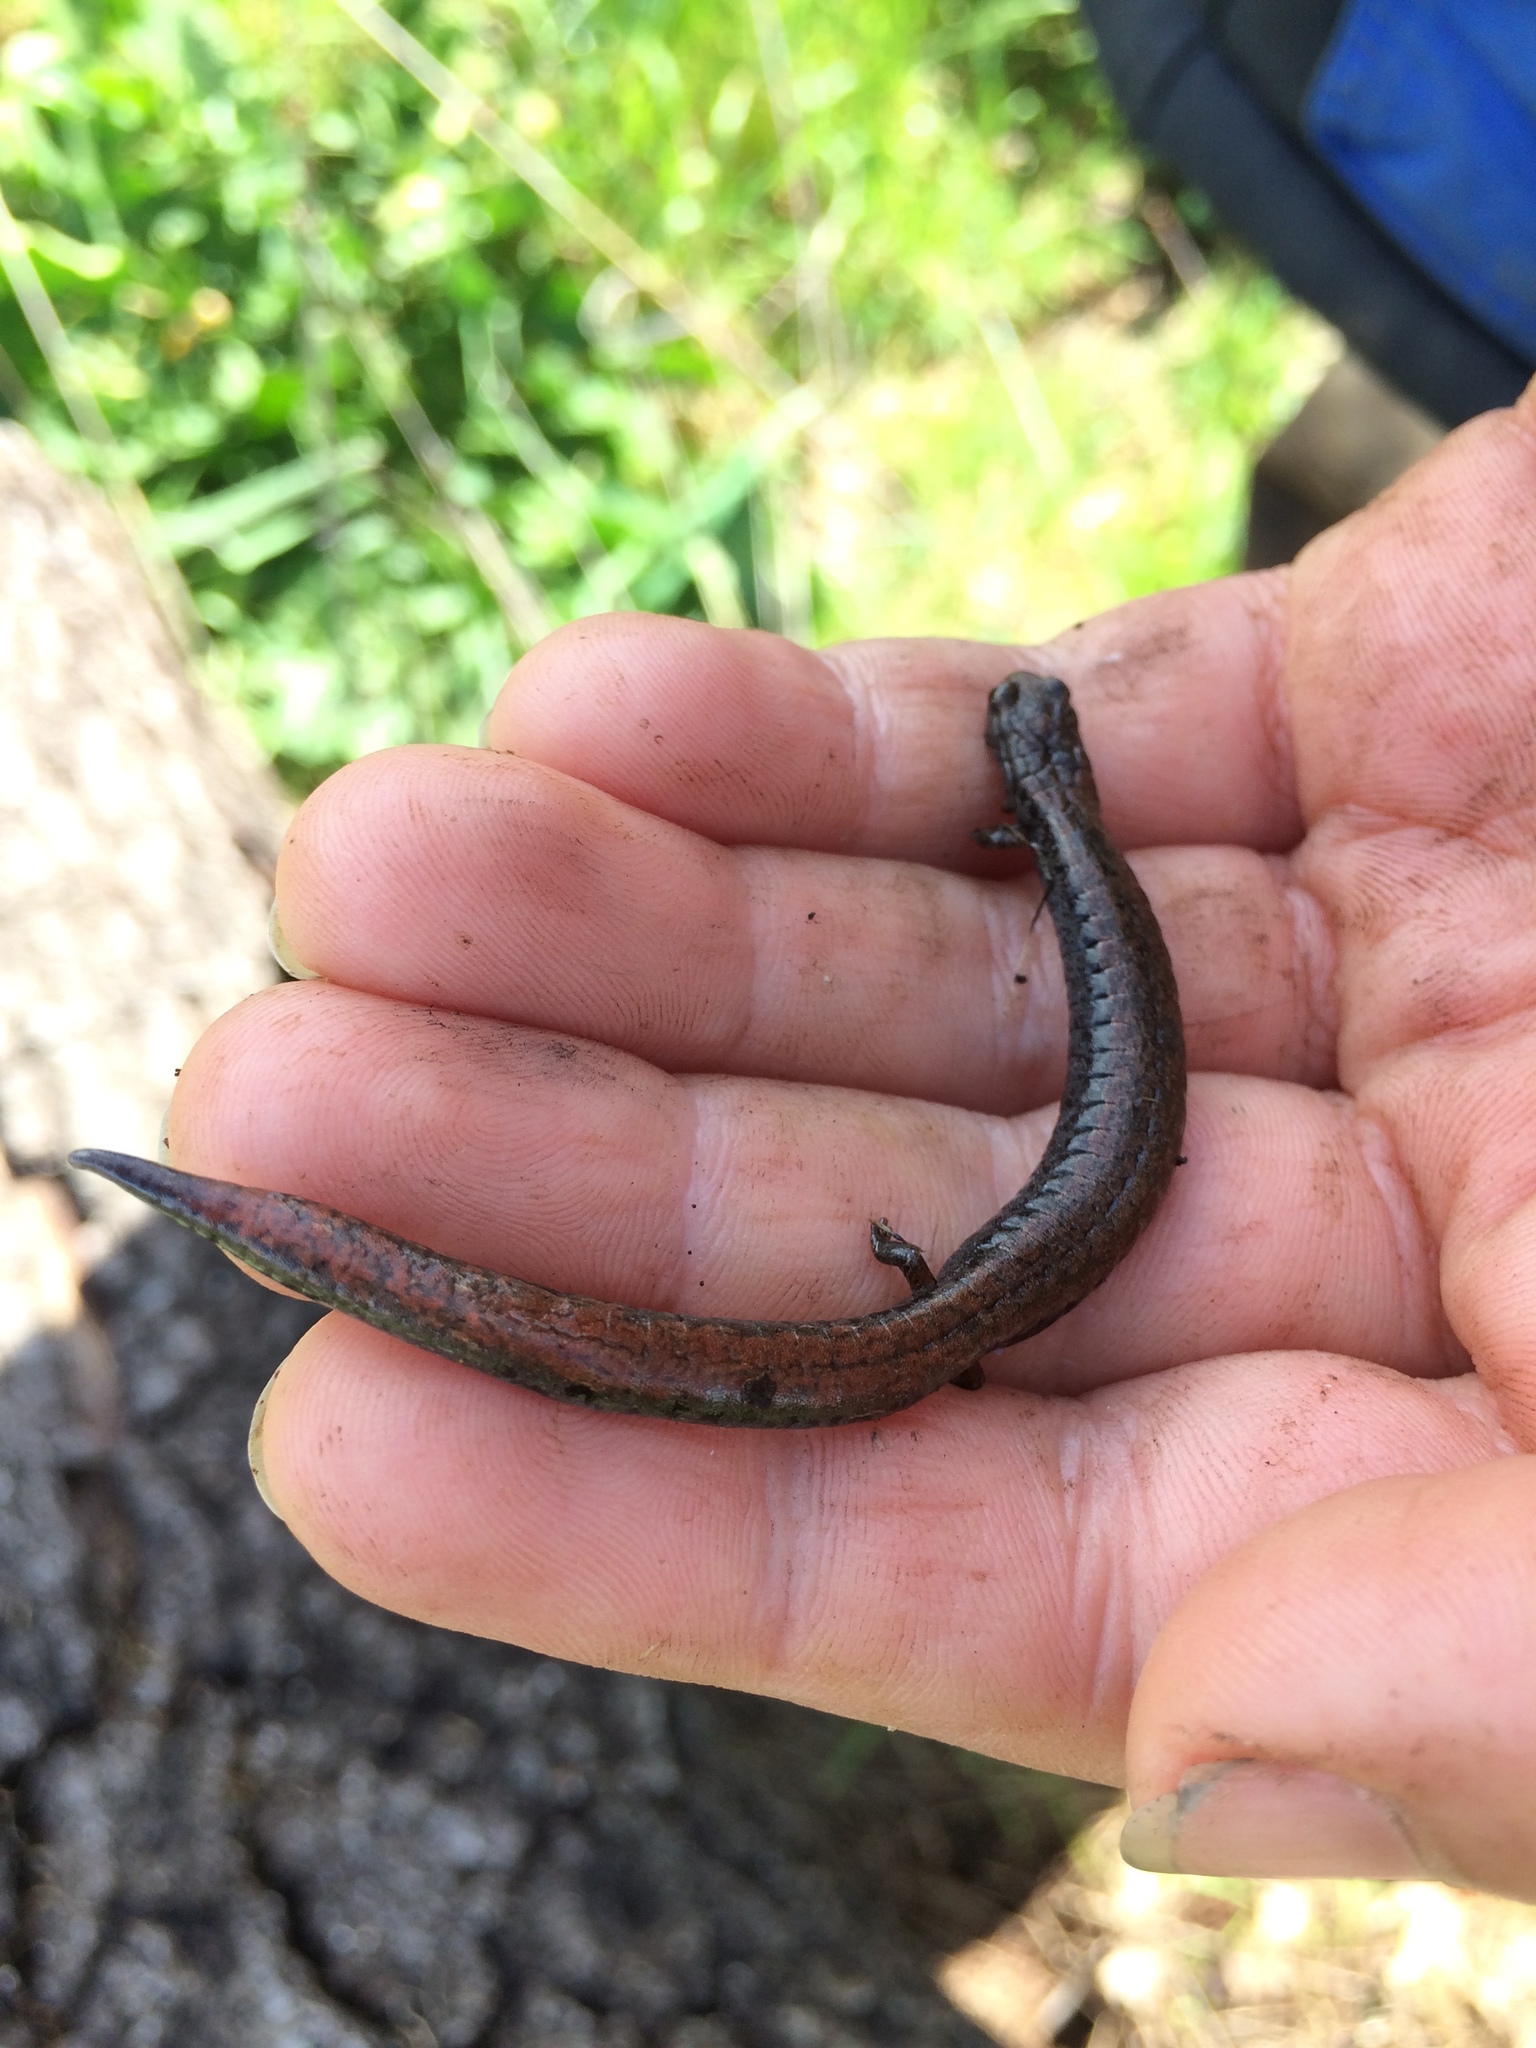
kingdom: Animalia
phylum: Chordata
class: Amphibia
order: Caudata
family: Plethodontidae
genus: Batrachoseps
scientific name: Batrachoseps attenuatus
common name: California slender salamander
